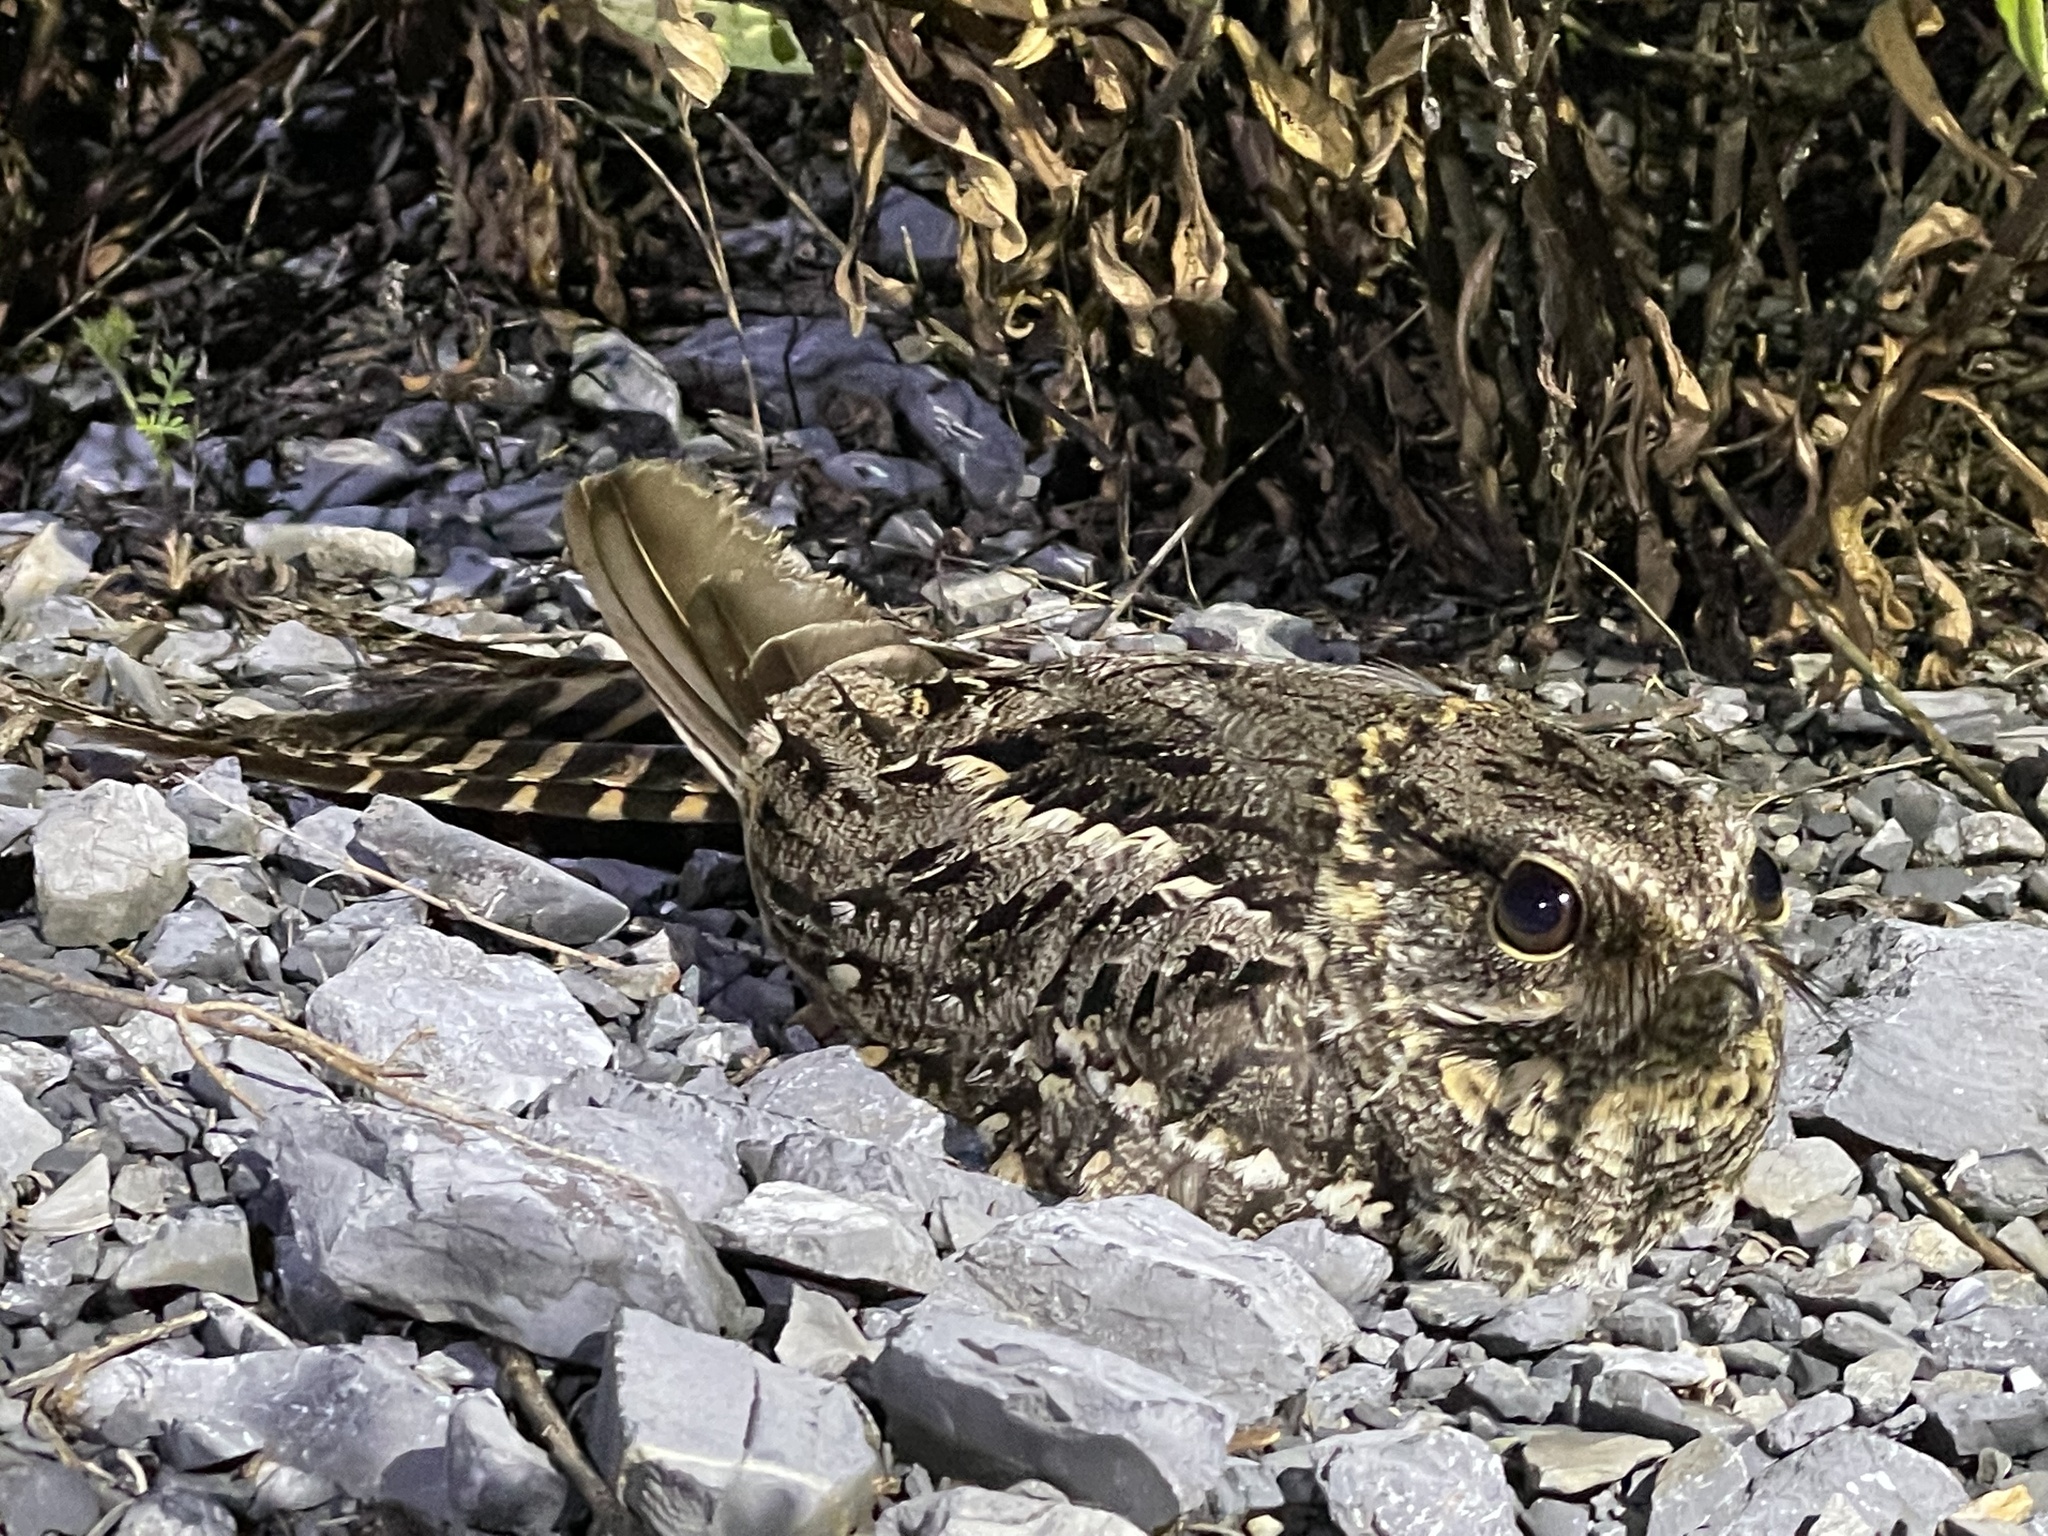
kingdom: Animalia
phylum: Chordata
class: Aves
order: Caprimulgiformes
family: Caprimulgidae
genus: Hydropsalis
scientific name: Hydropsalis torquata
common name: Scissor-tailed nightjar
